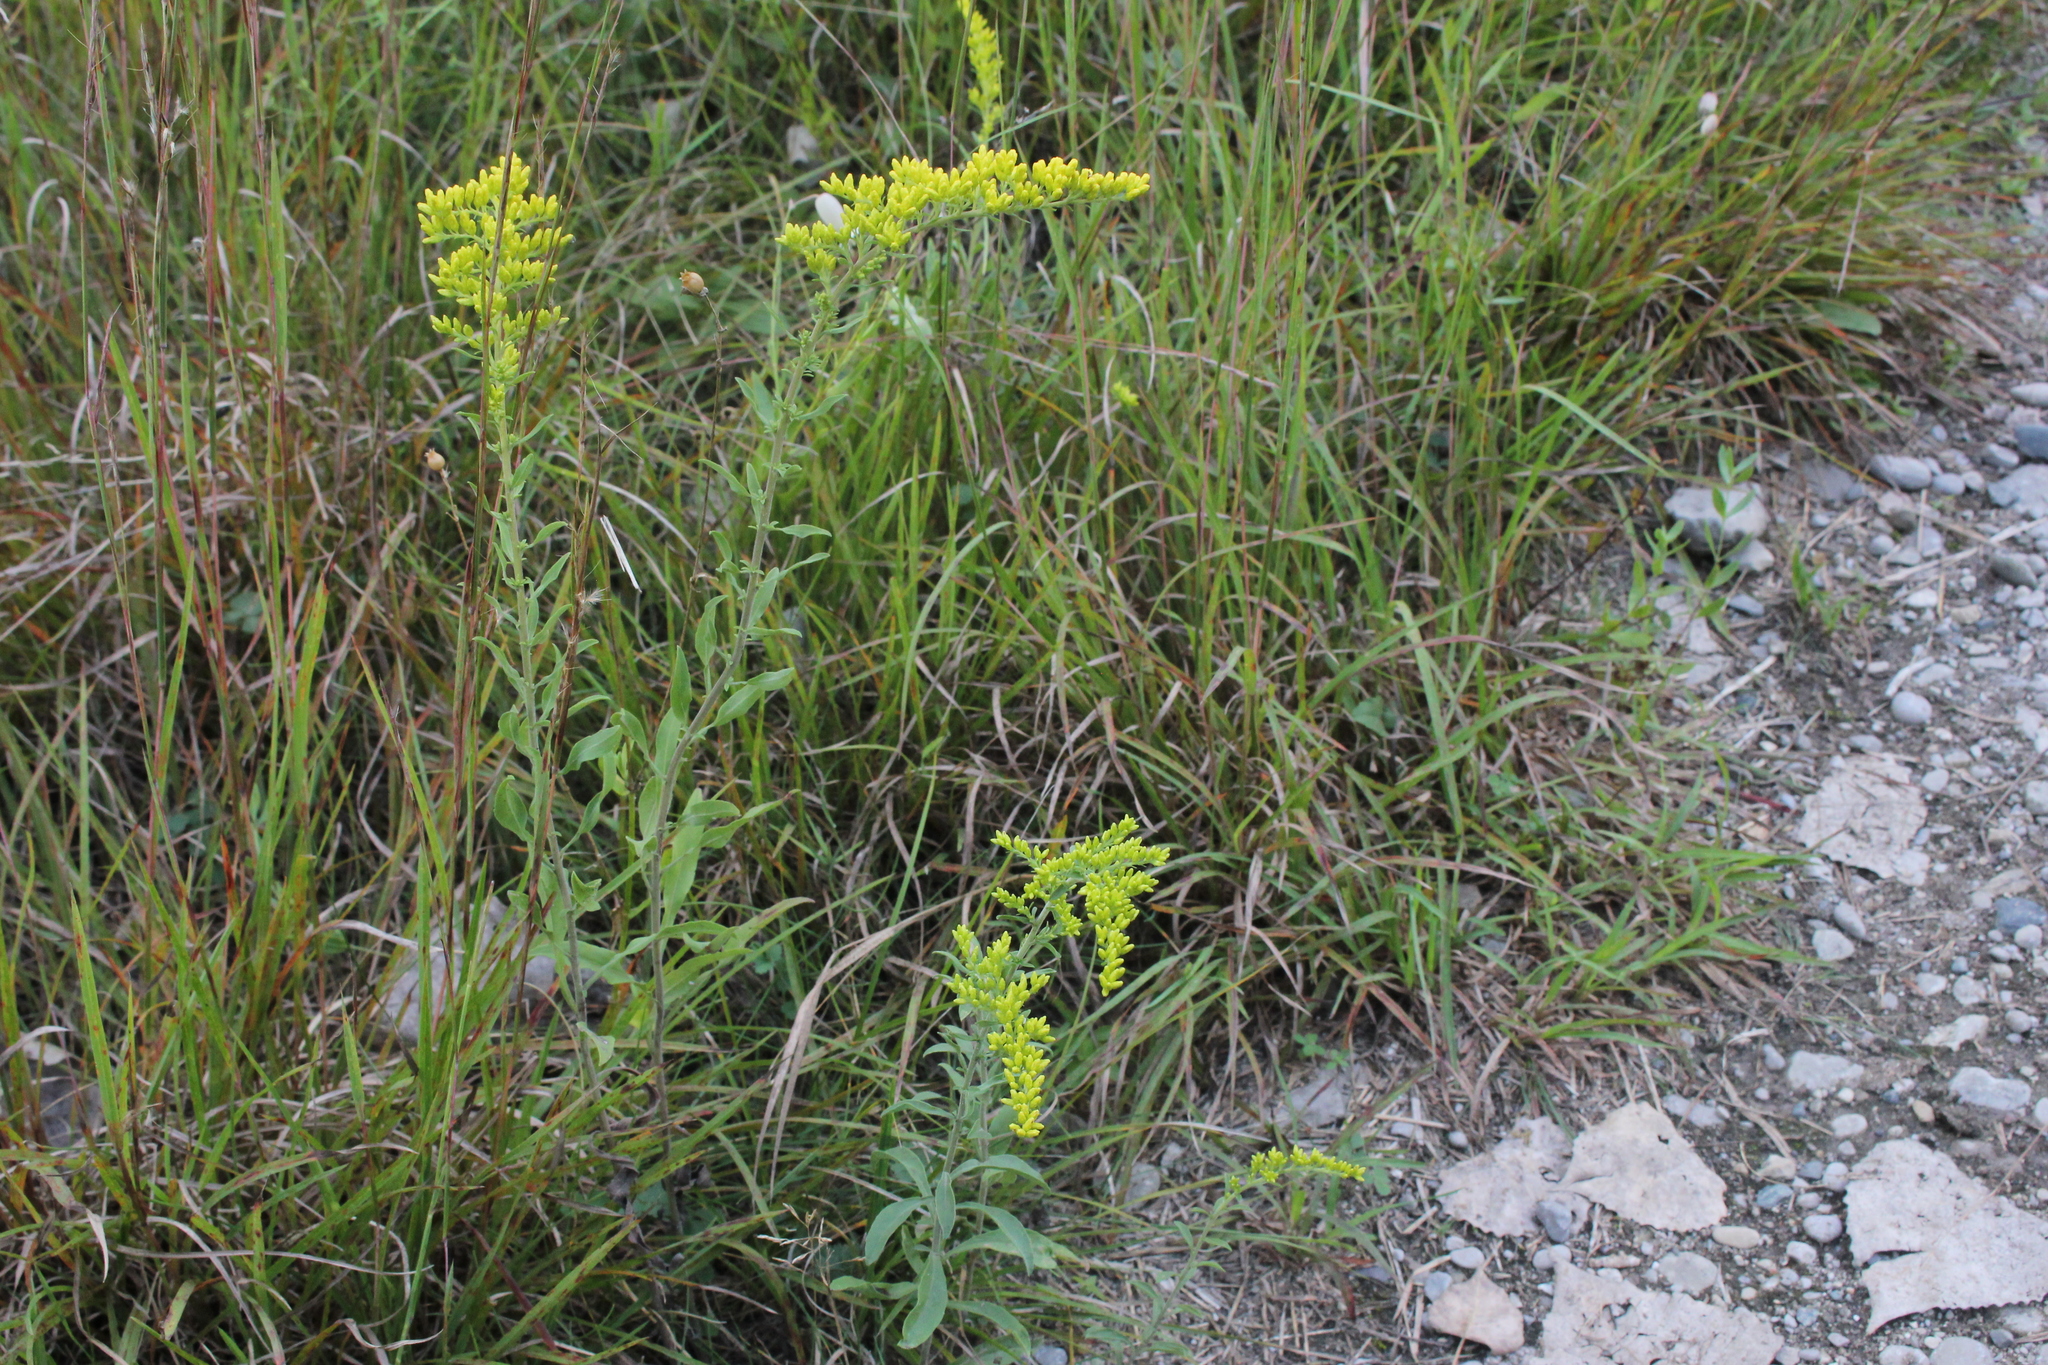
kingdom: Plantae
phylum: Tracheophyta
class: Magnoliopsida
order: Asterales
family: Asteraceae
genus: Solidago
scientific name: Solidago nemoralis
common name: Grey goldenrod
